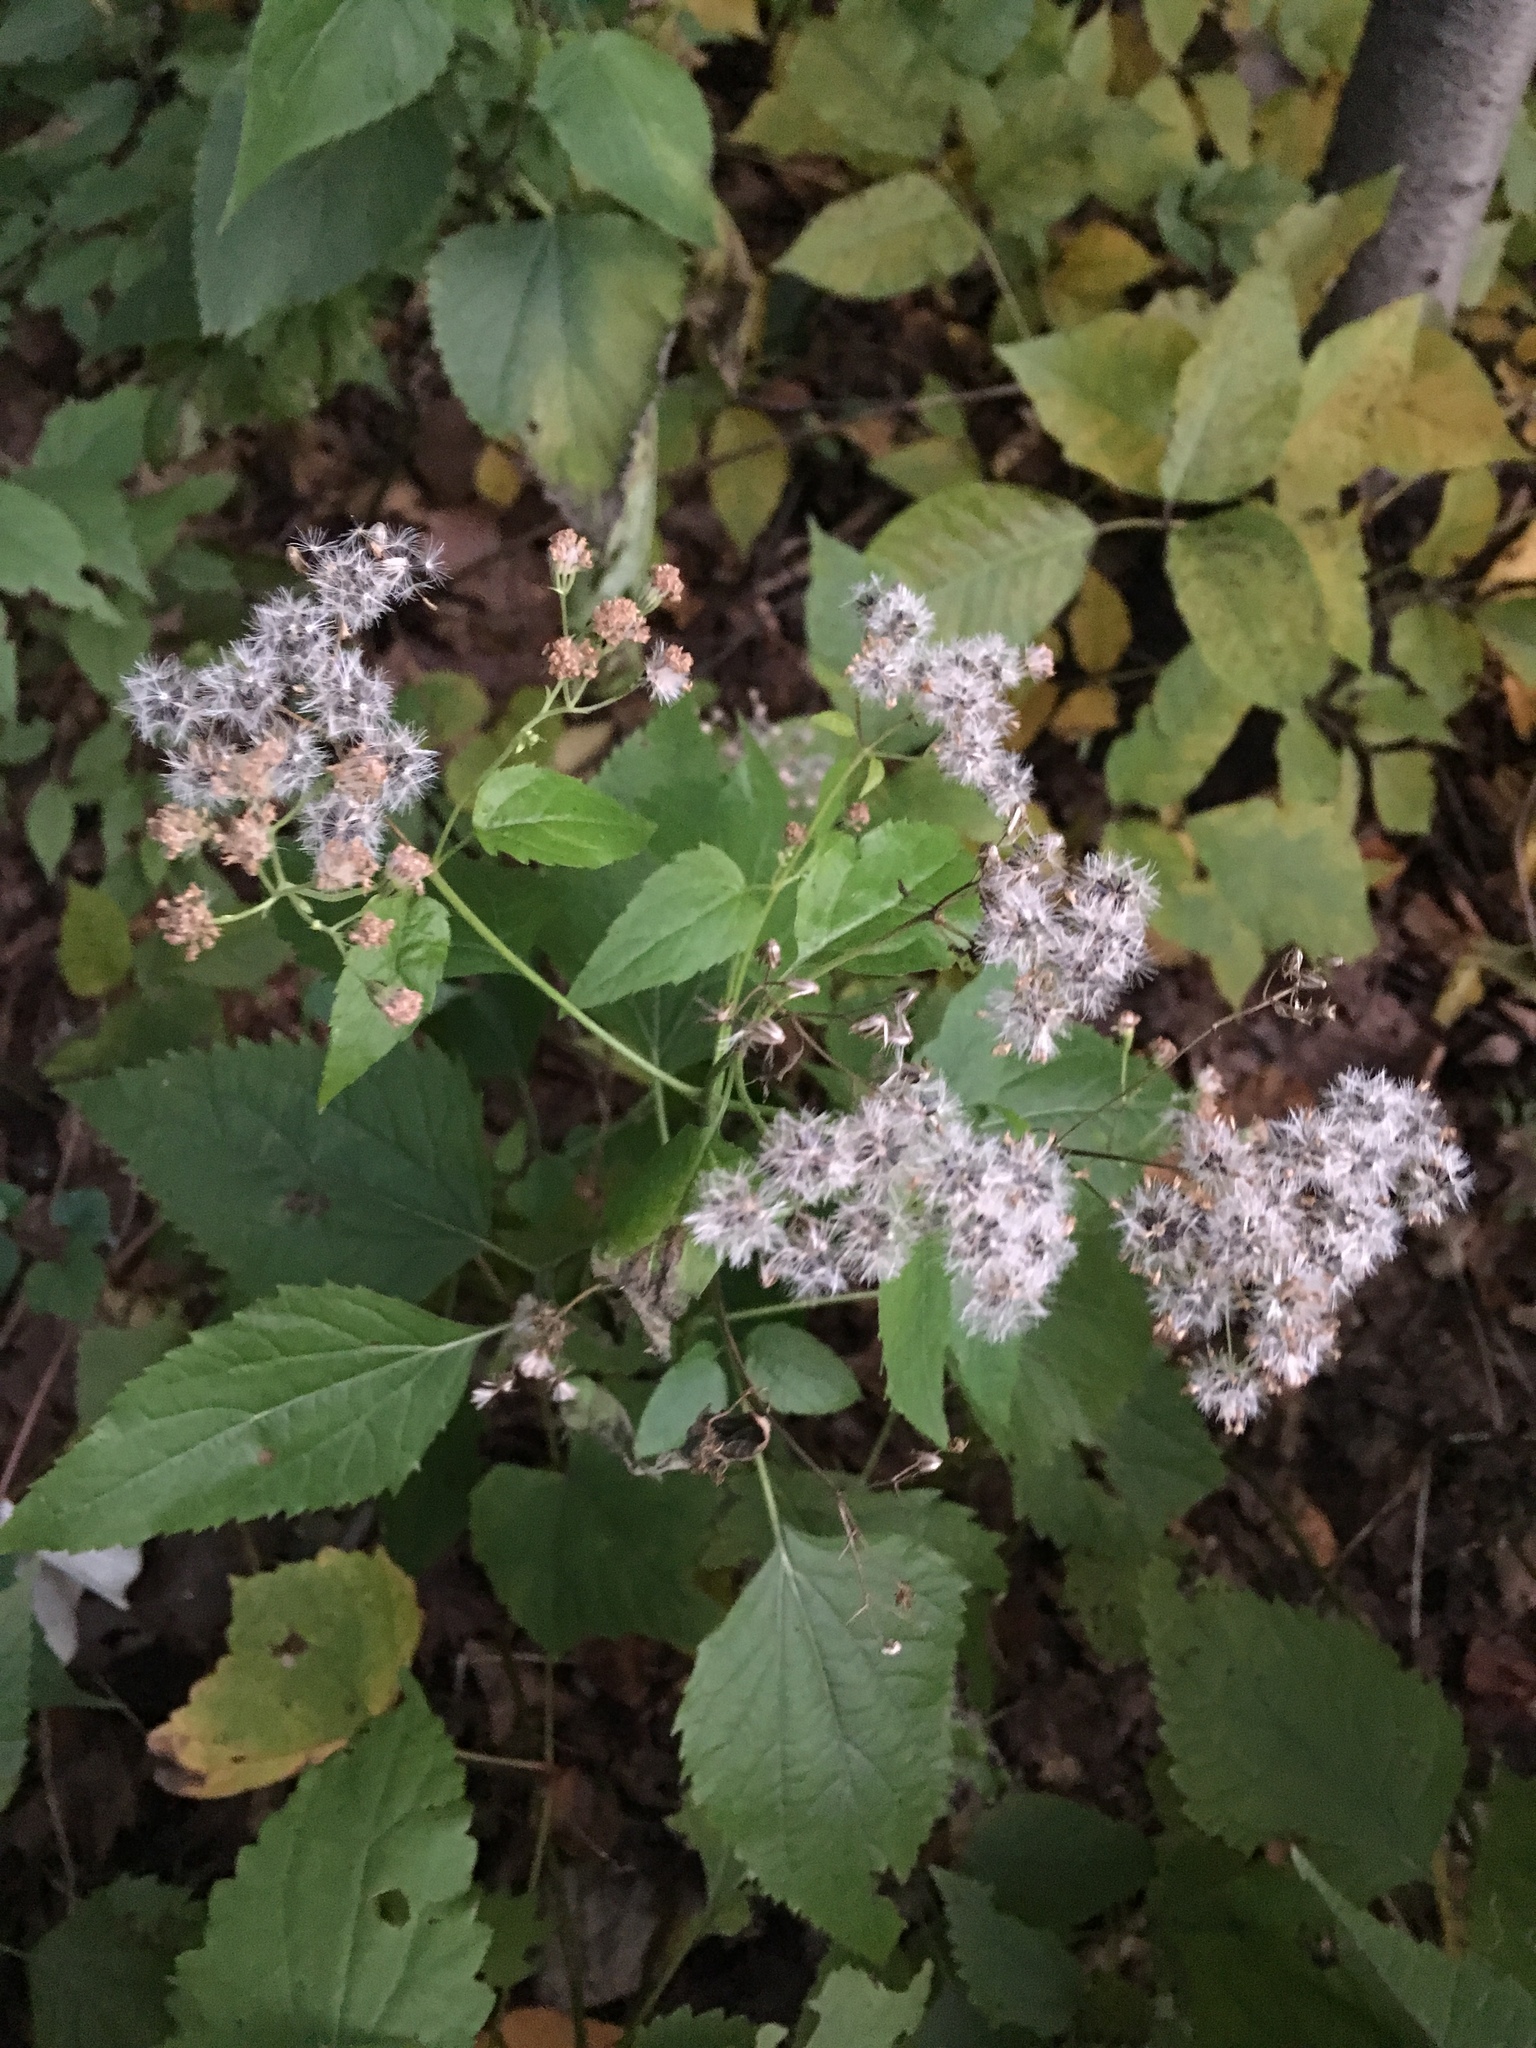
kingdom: Plantae
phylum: Tracheophyta
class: Magnoliopsida
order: Asterales
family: Asteraceae
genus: Ageratina
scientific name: Ageratina altissima
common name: White snakeroot
